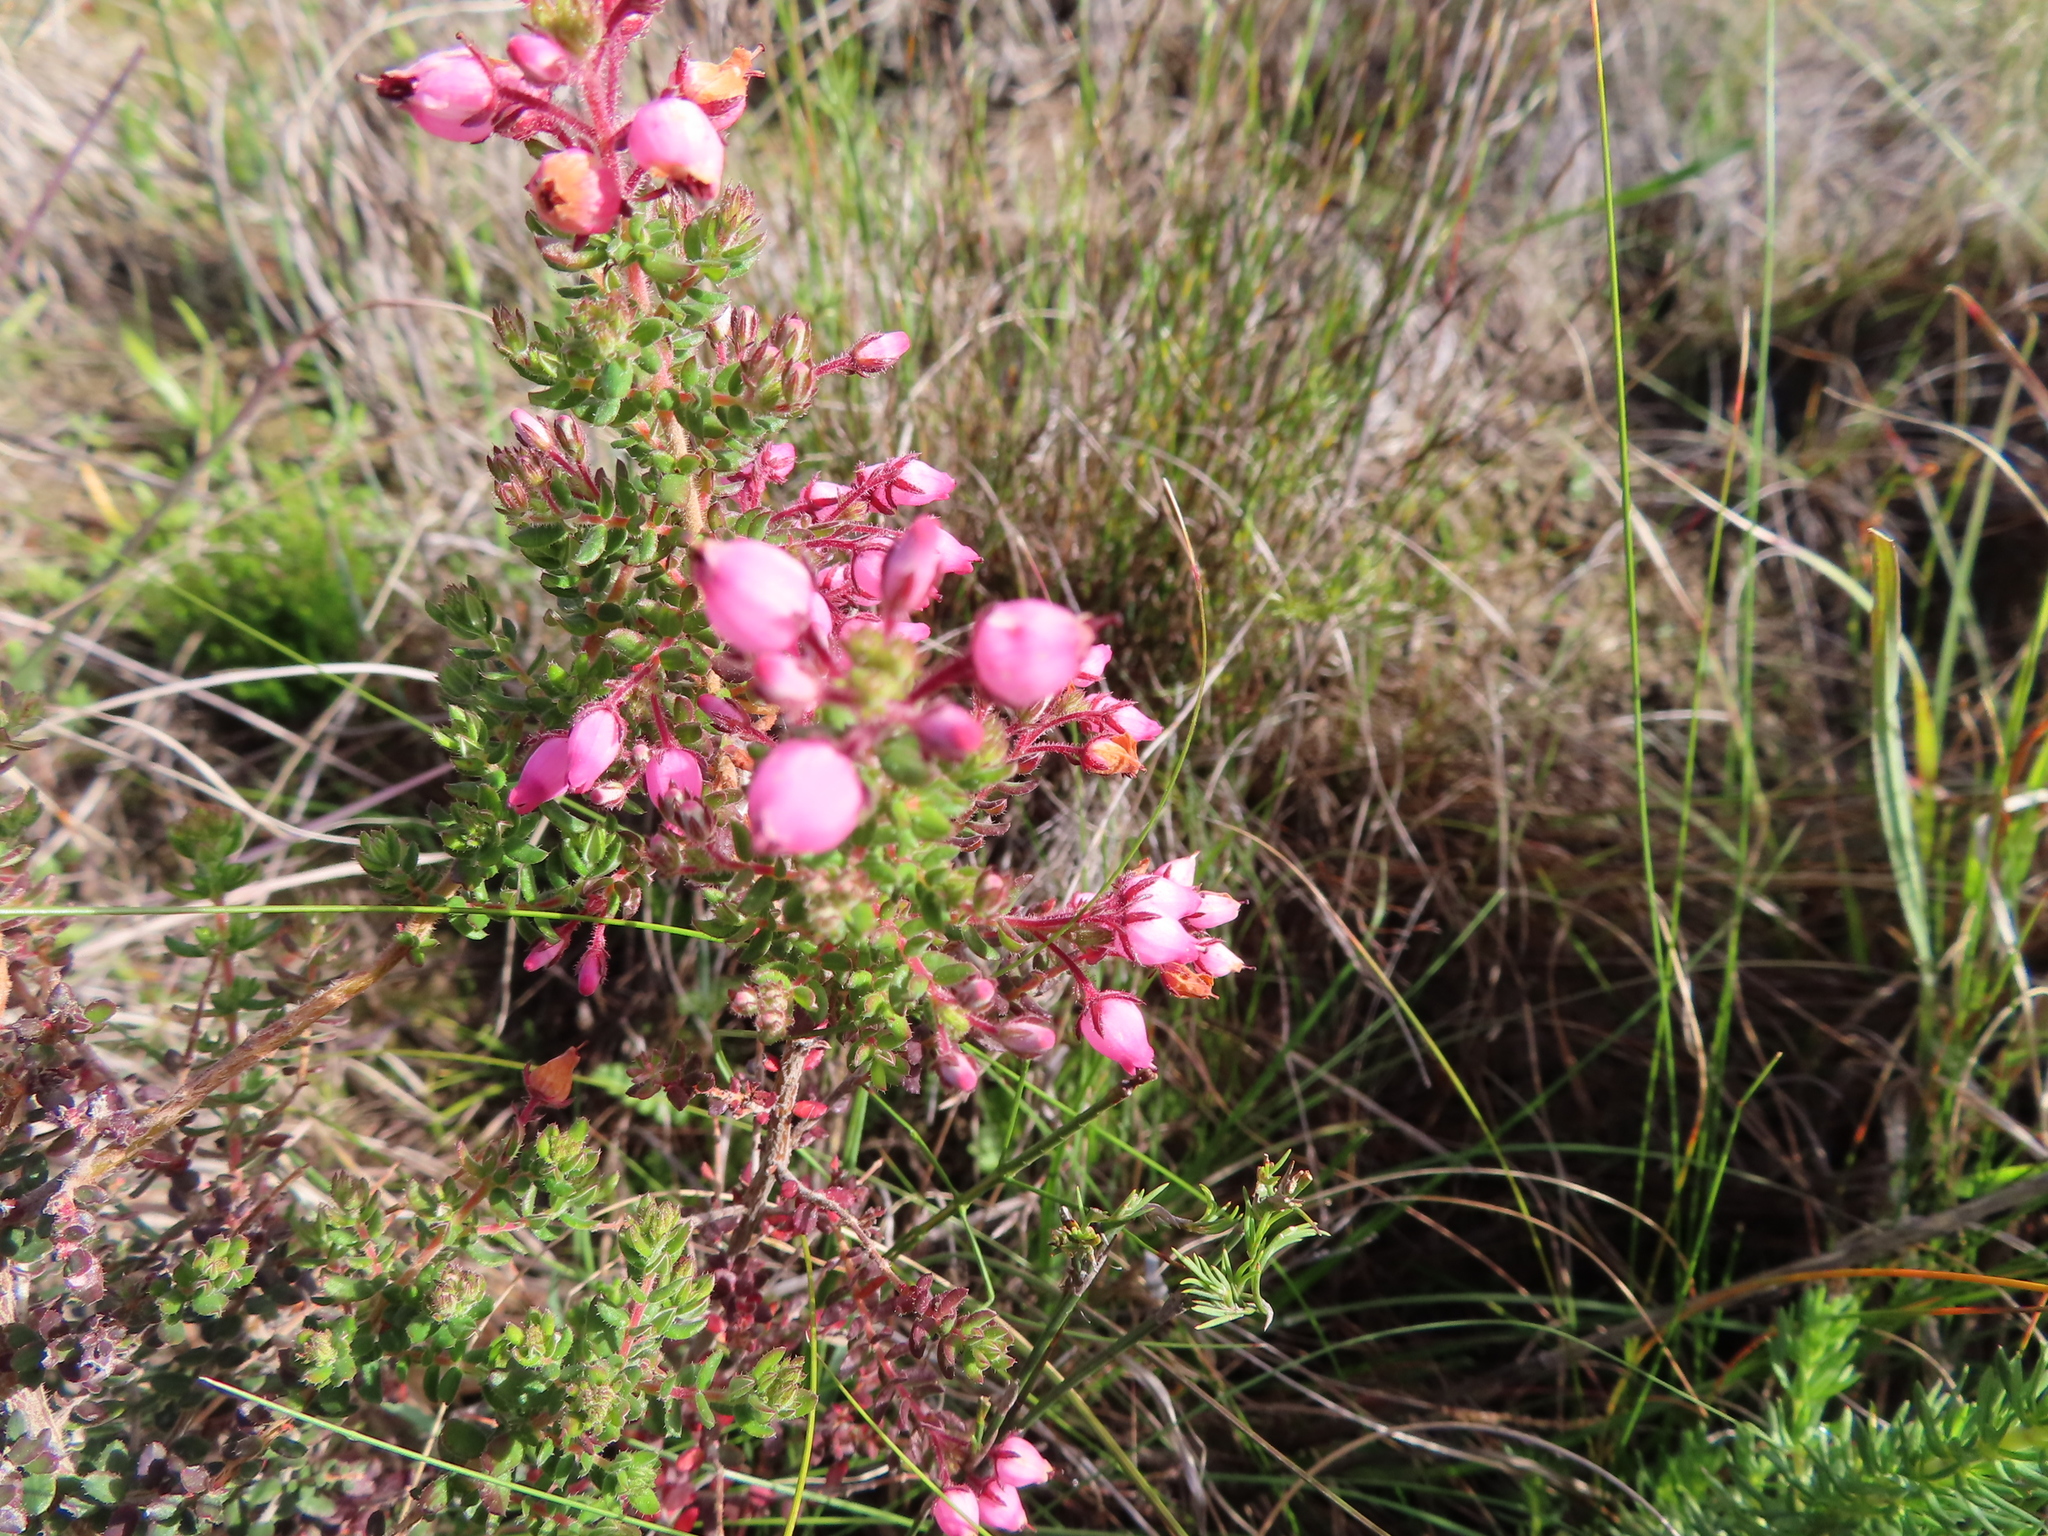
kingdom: Plantae
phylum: Tracheophyta
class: Magnoliopsida
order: Ericales
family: Ericaceae
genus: Erica
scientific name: Erica hirta
